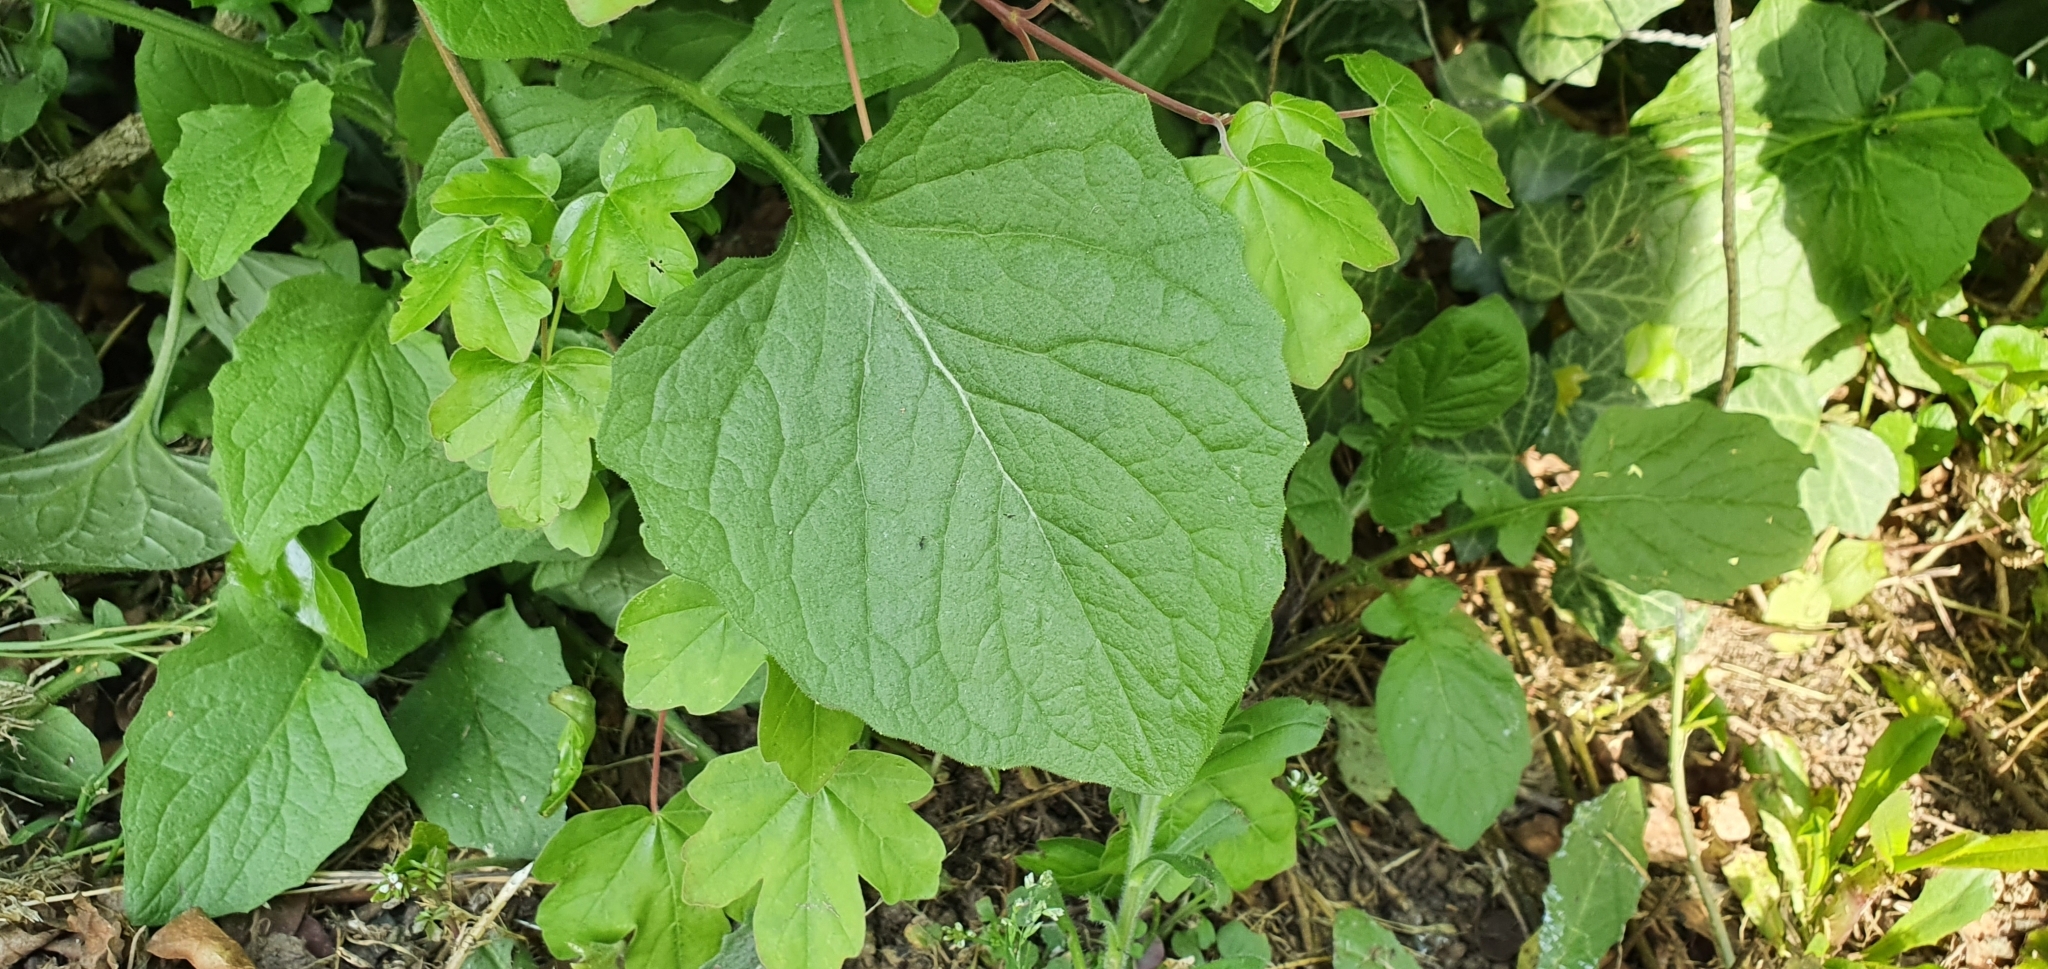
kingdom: Plantae
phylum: Tracheophyta
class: Magnoliopsida
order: Asterales
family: Asteraceae
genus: Lapsana
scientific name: Lapsana communis
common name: Nipplewort
